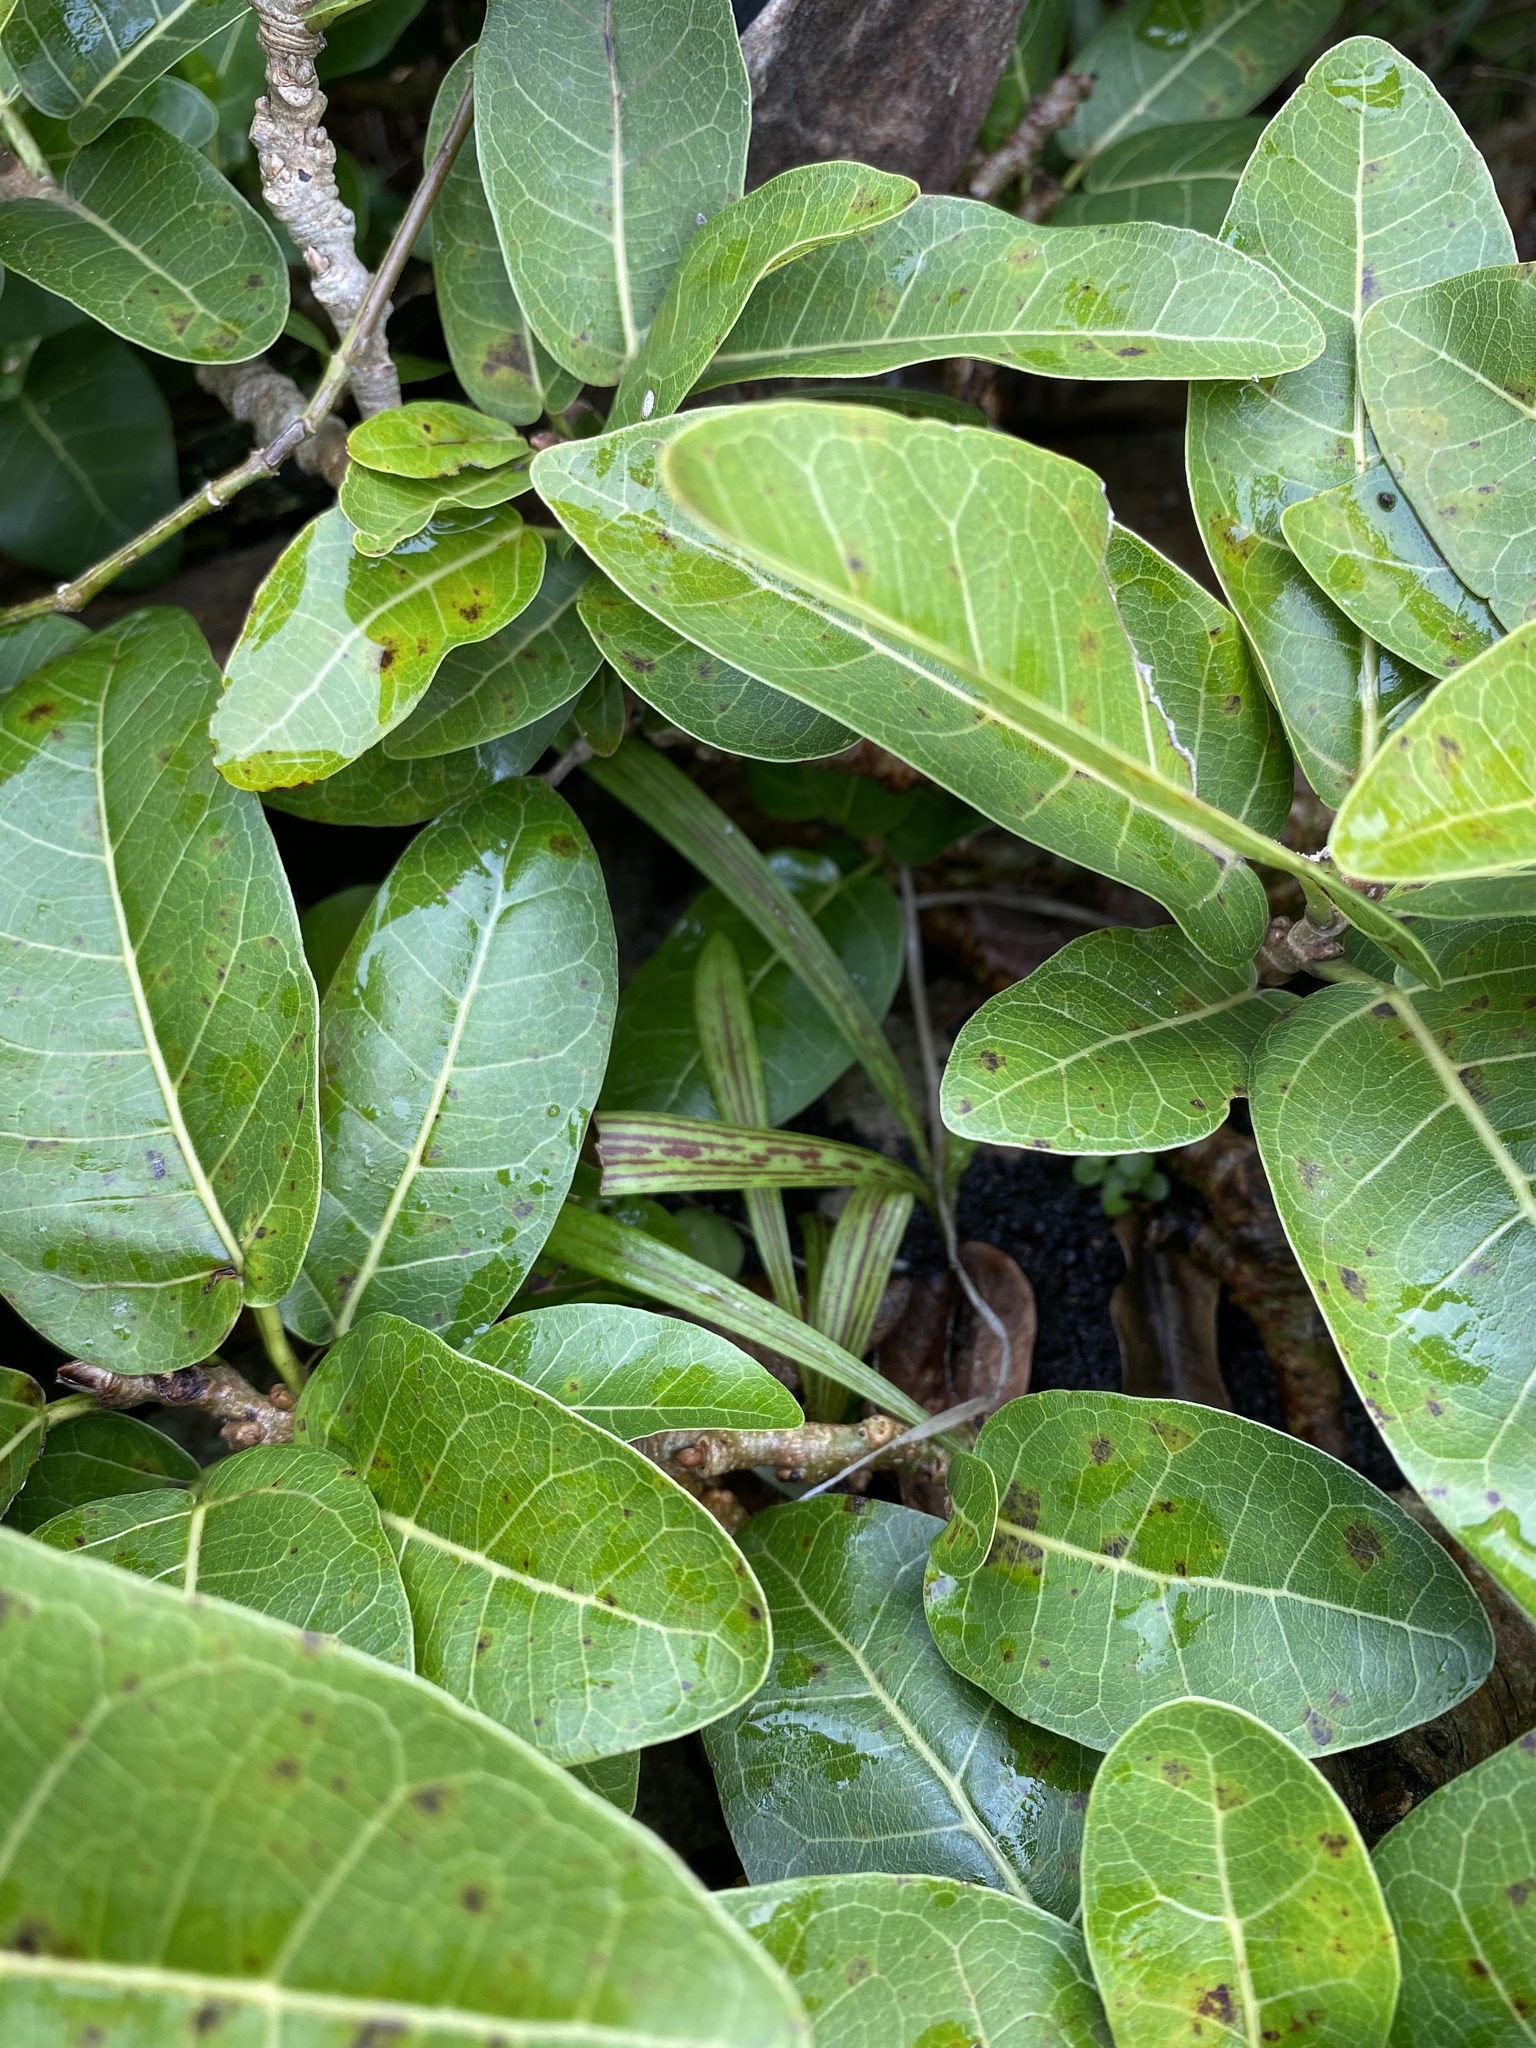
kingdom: Plantae
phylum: Tracheophyta
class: Magnoliopsida
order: Rosales
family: Moraceae
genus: Ficus
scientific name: Ficus ingens
